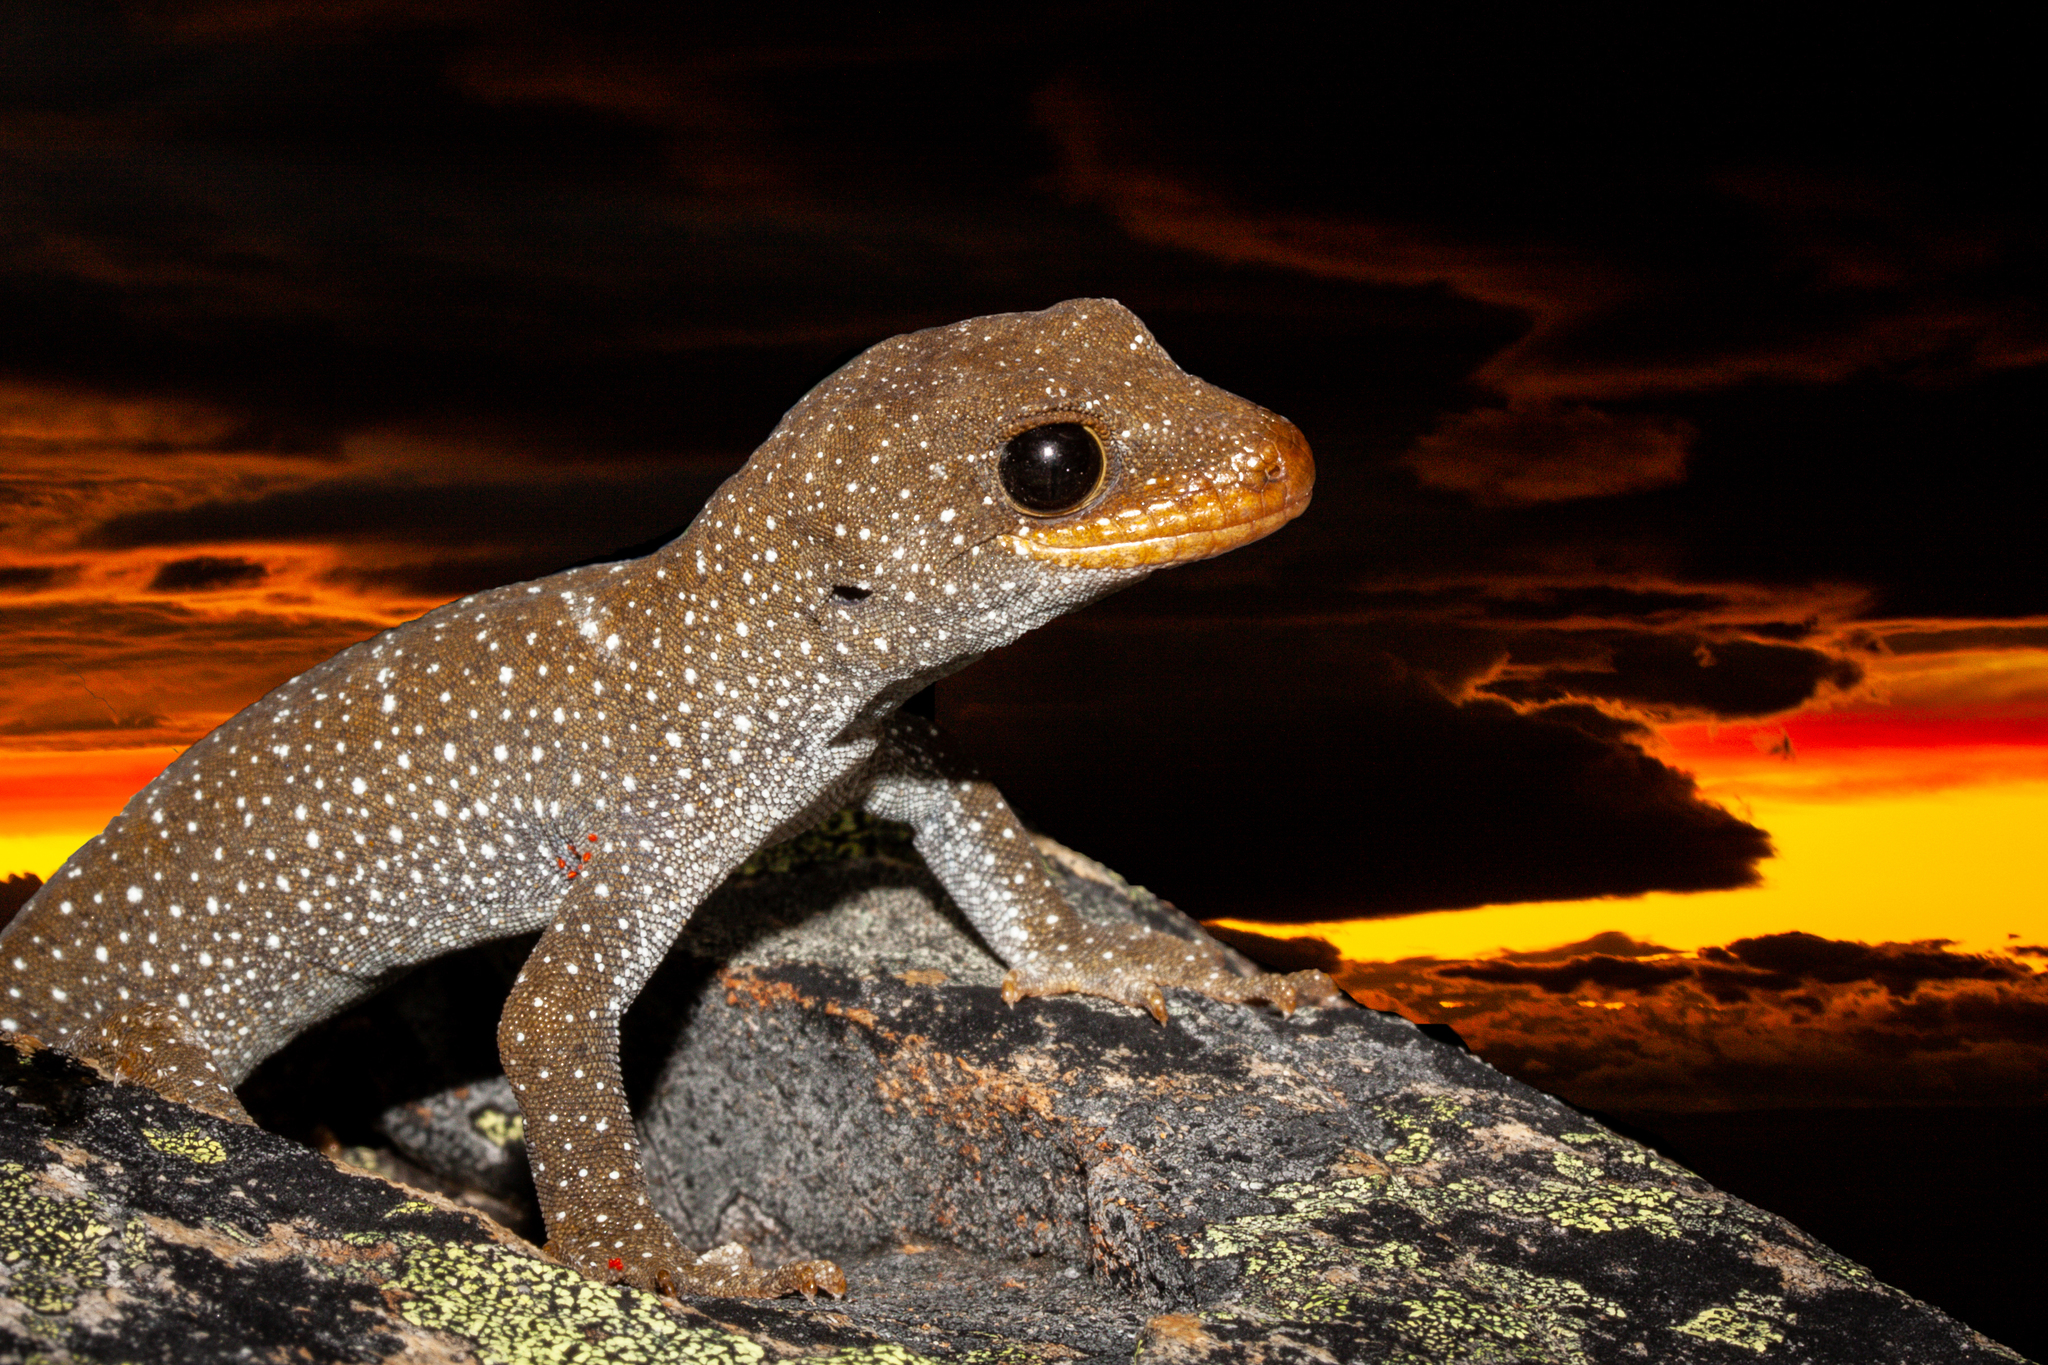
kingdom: Animalia
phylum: Chordata
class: Squamata
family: Diplodactylidae
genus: Mokopirirakau
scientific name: Mokopirirakau galaxias
